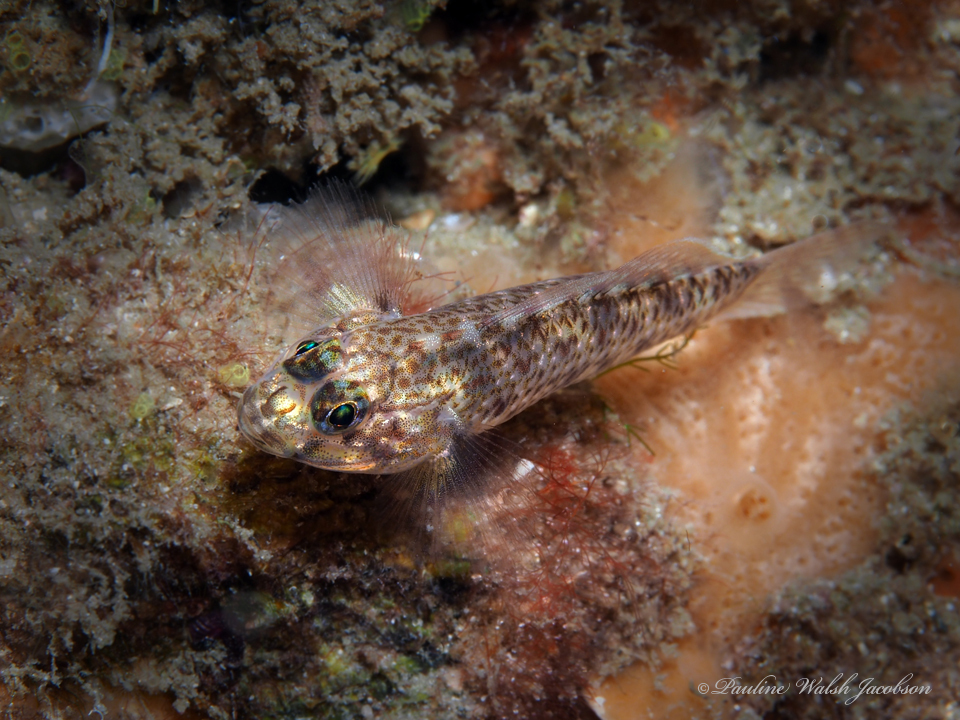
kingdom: Animalia
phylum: Chordata
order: Perciformes
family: Gobiidae
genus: Coryphopterus
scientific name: Coryphopterus dicrus
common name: Colon goby
